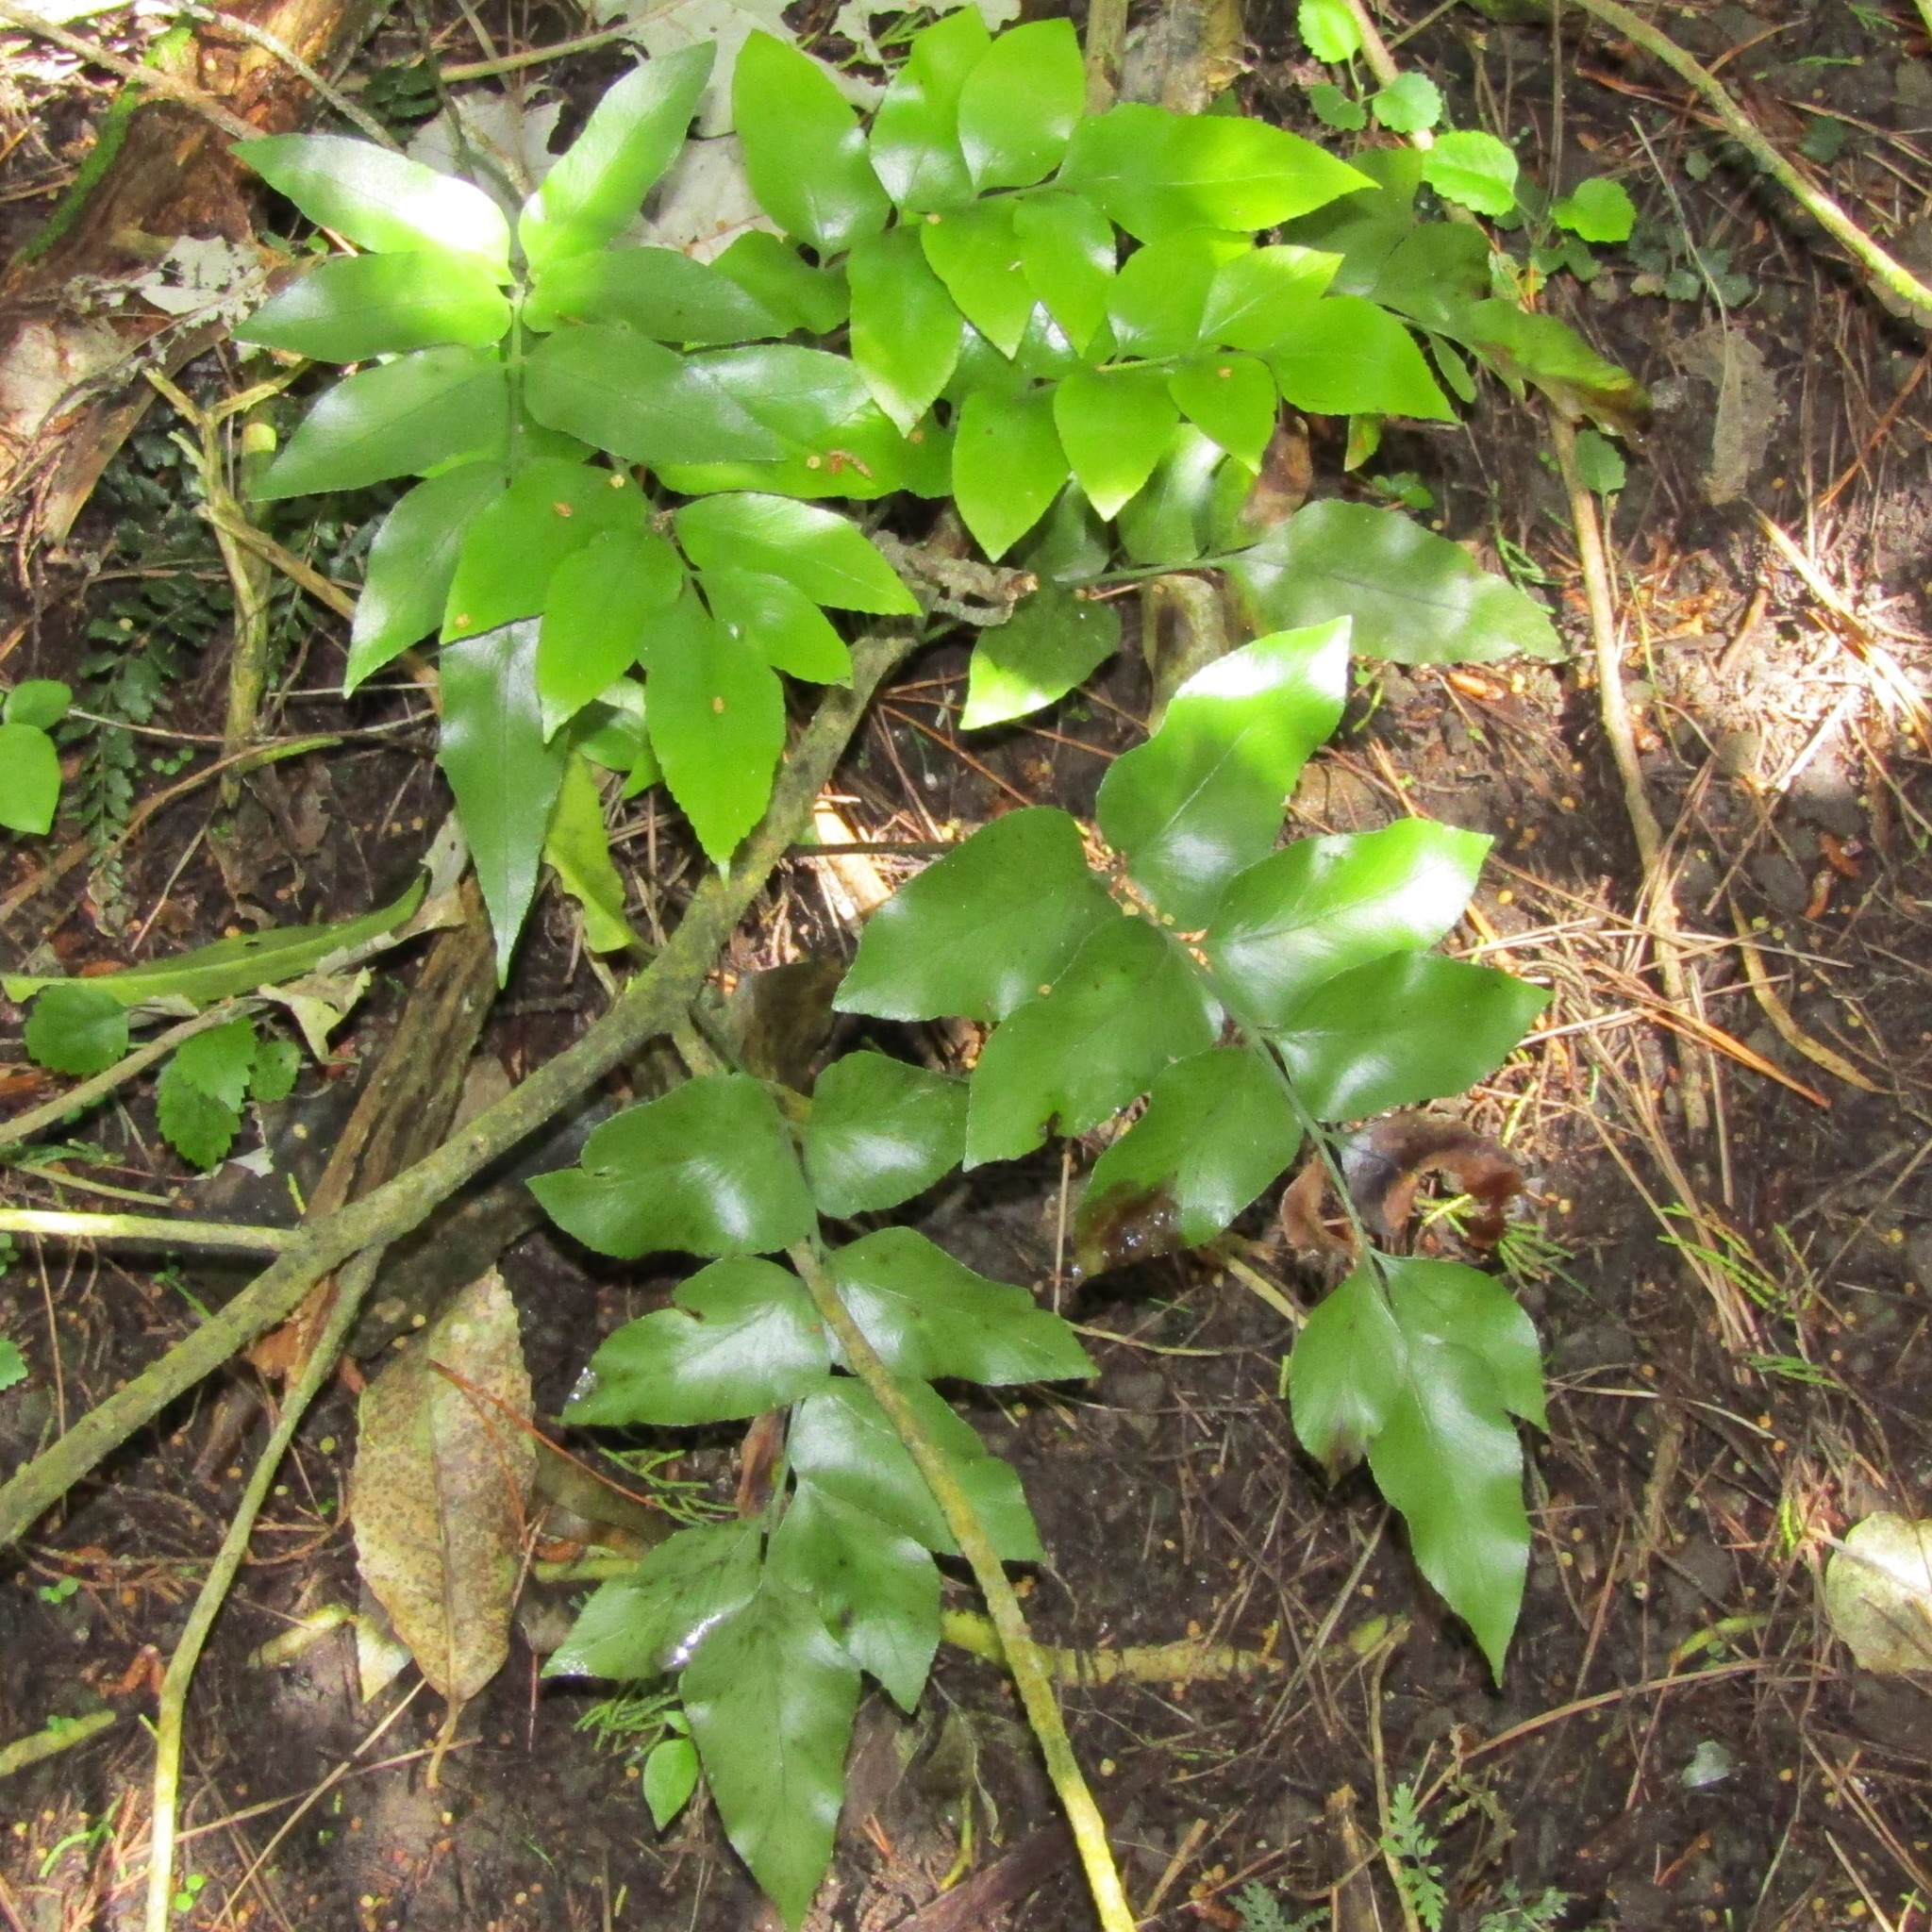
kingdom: Plantae
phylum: Tracheophyta
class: Polypodiopsida
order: Polypodiales
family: Aspleniaceae
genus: Asplenium
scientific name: Asplenium oblongifolium
